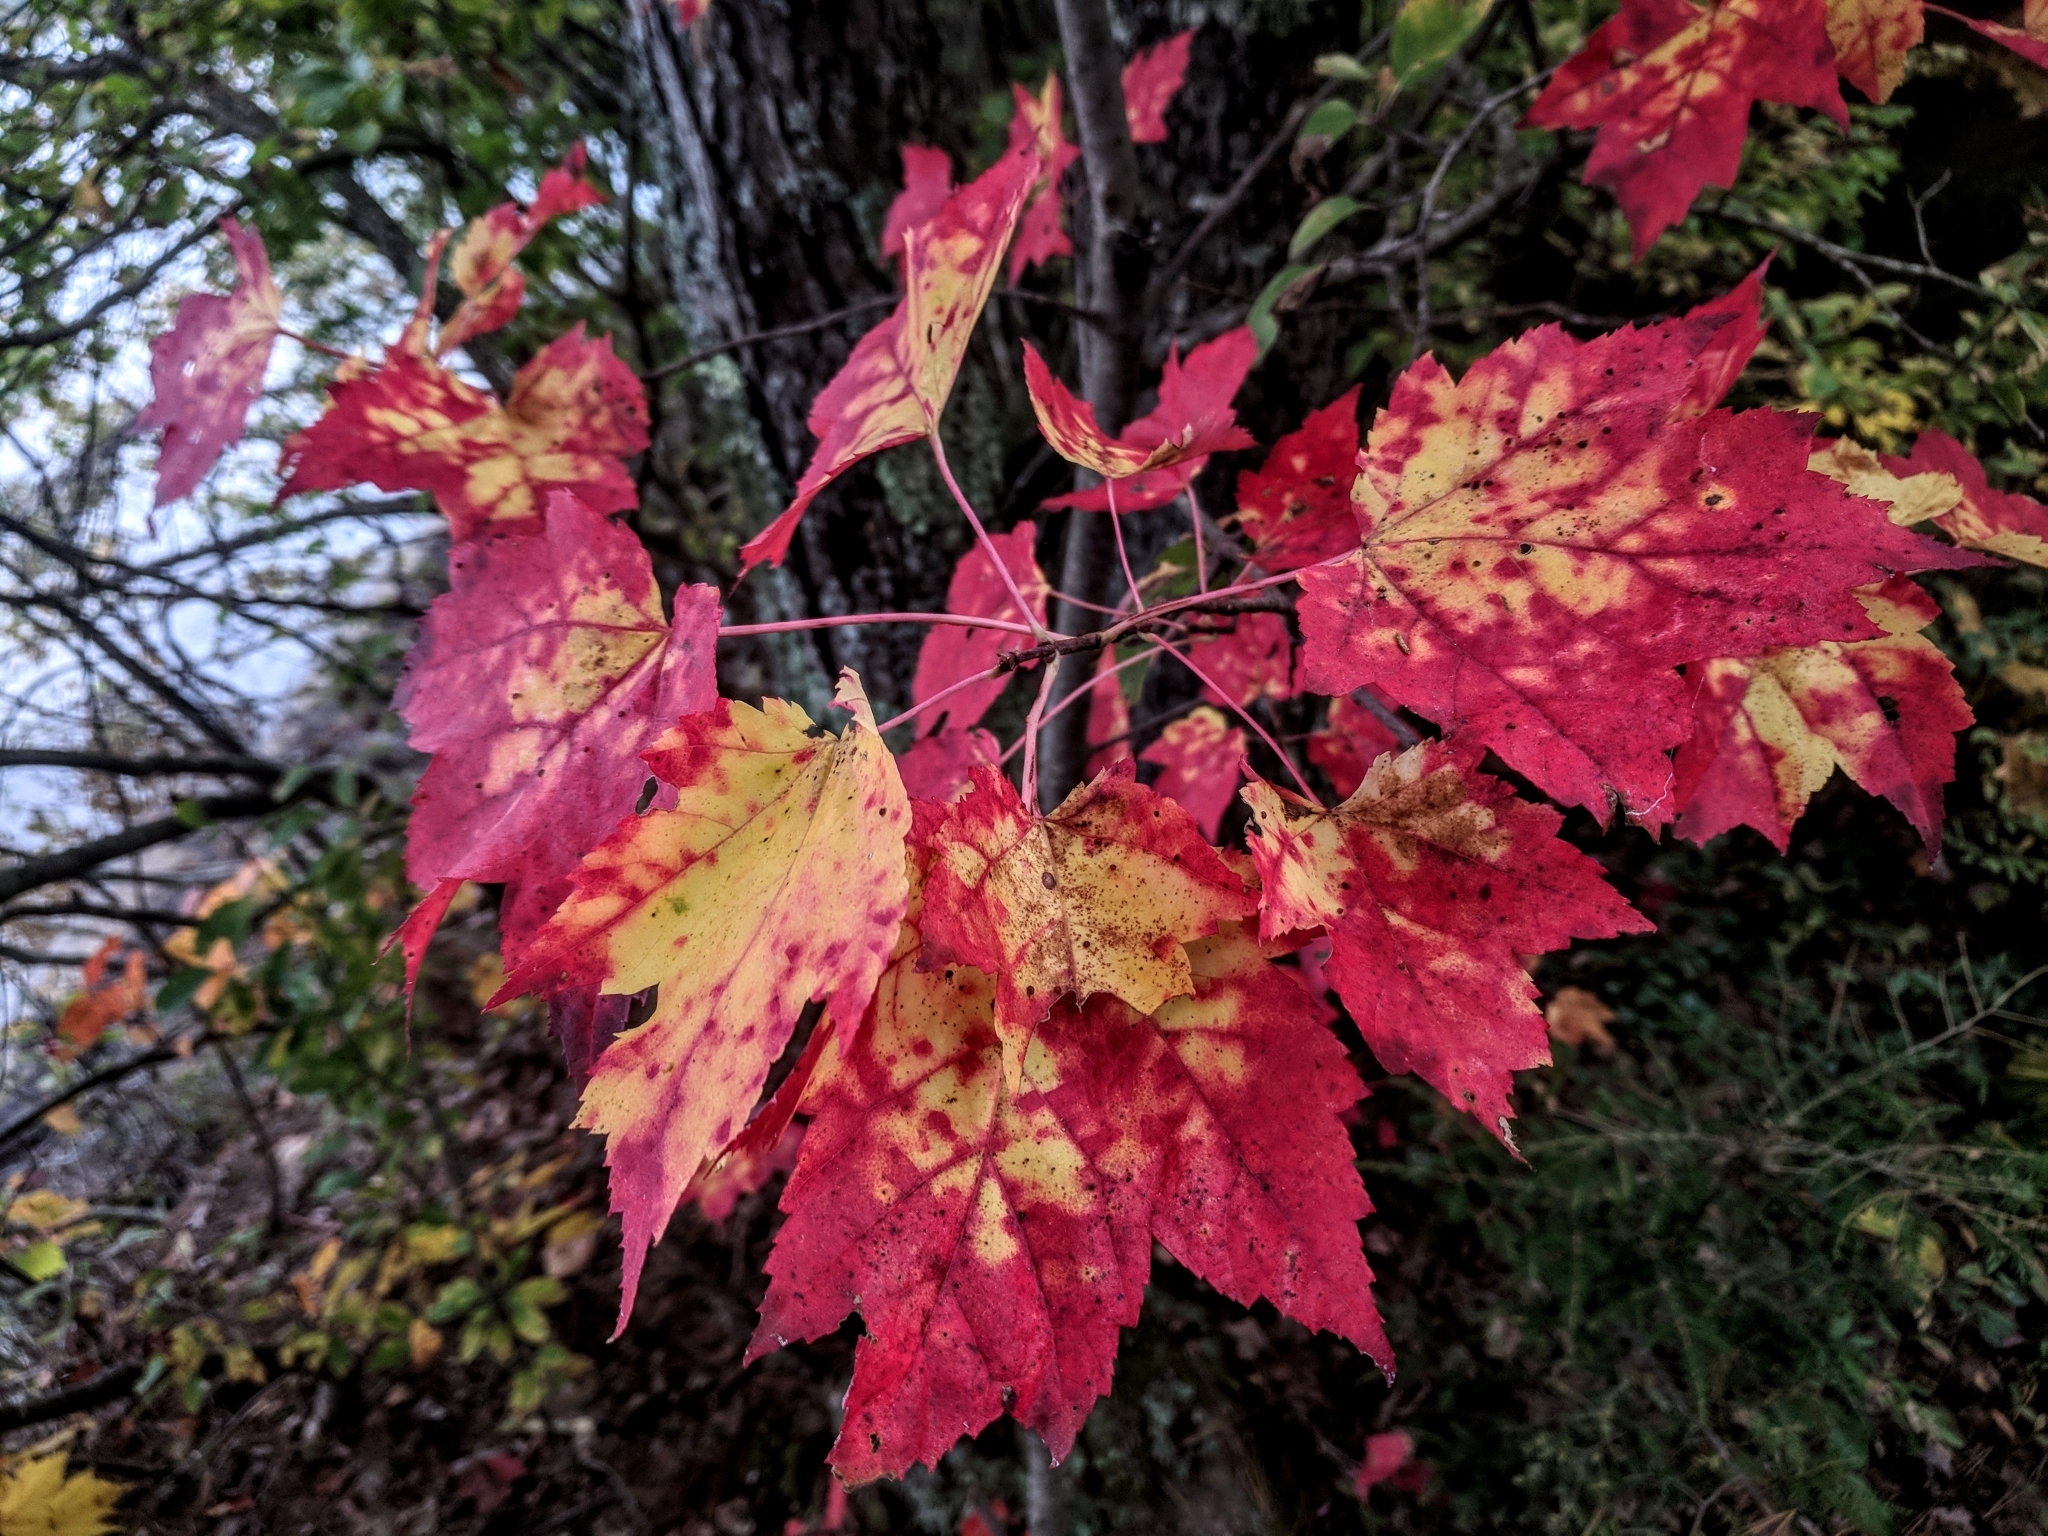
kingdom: Plantae
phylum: Tracheophyta
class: Magnoliopsida
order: Sapindales
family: Sapindaceae
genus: Acer
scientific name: Acer rubrum
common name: Red maple
